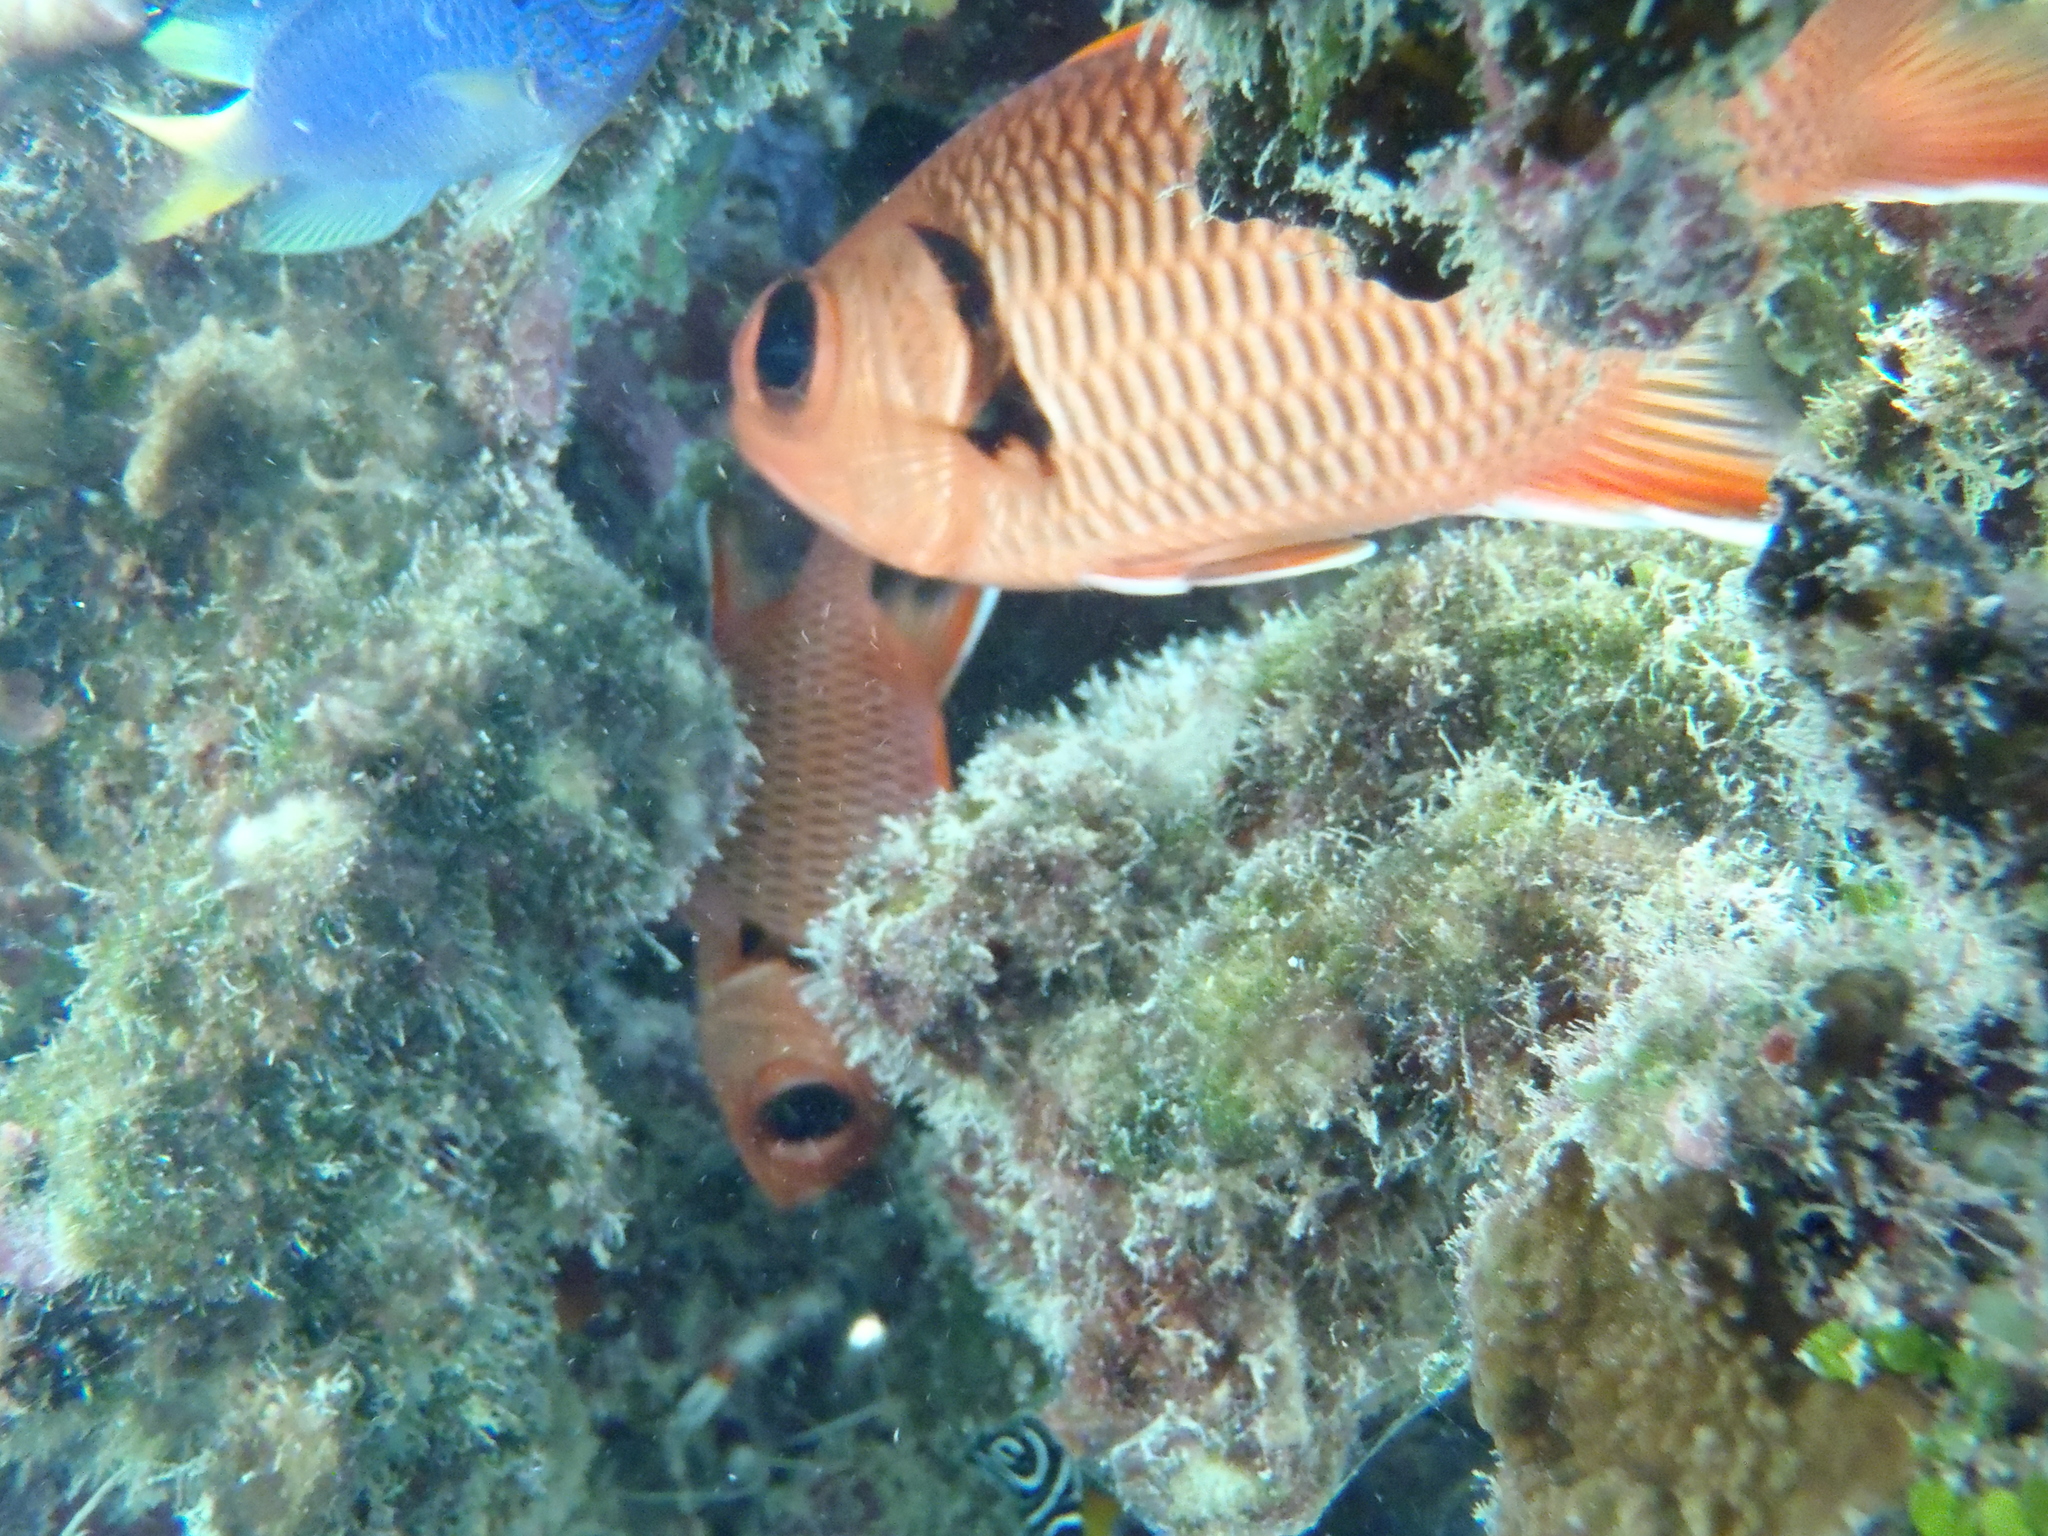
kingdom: Animalia
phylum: Chordata
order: Beryciformes
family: Holocentridae
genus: Myripristis
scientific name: Myripristis berndti
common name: Bigscale soldierfish
